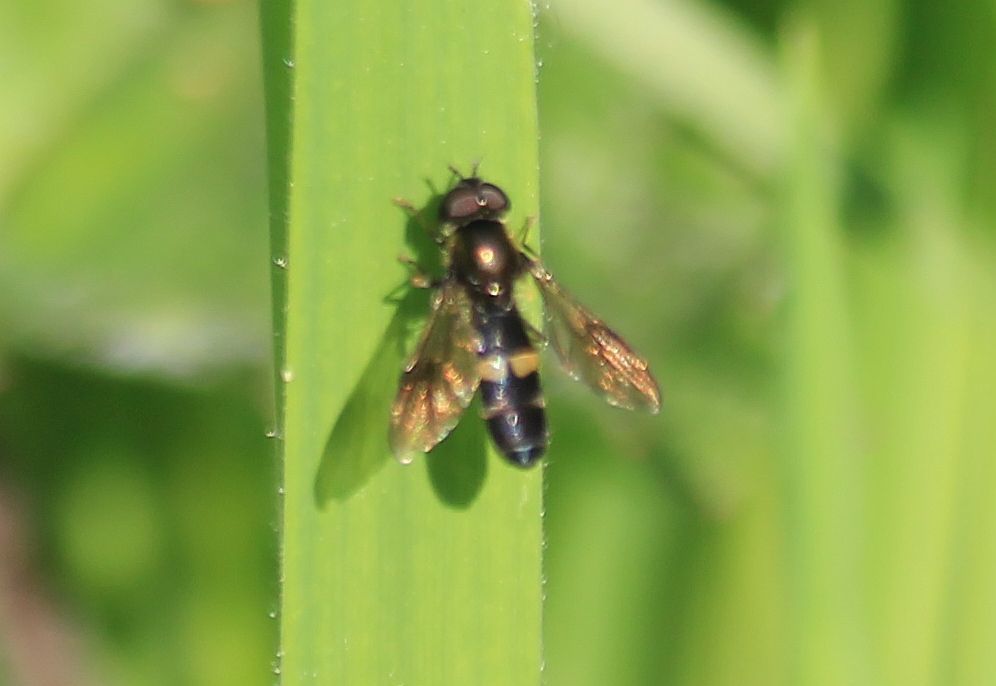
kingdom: Animalia
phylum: Arthropoda
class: Insecta
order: Diptera
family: Syrphidae
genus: Pyrophaena
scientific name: Pyrophaena rosarum
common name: Fourspot sedgesitter
